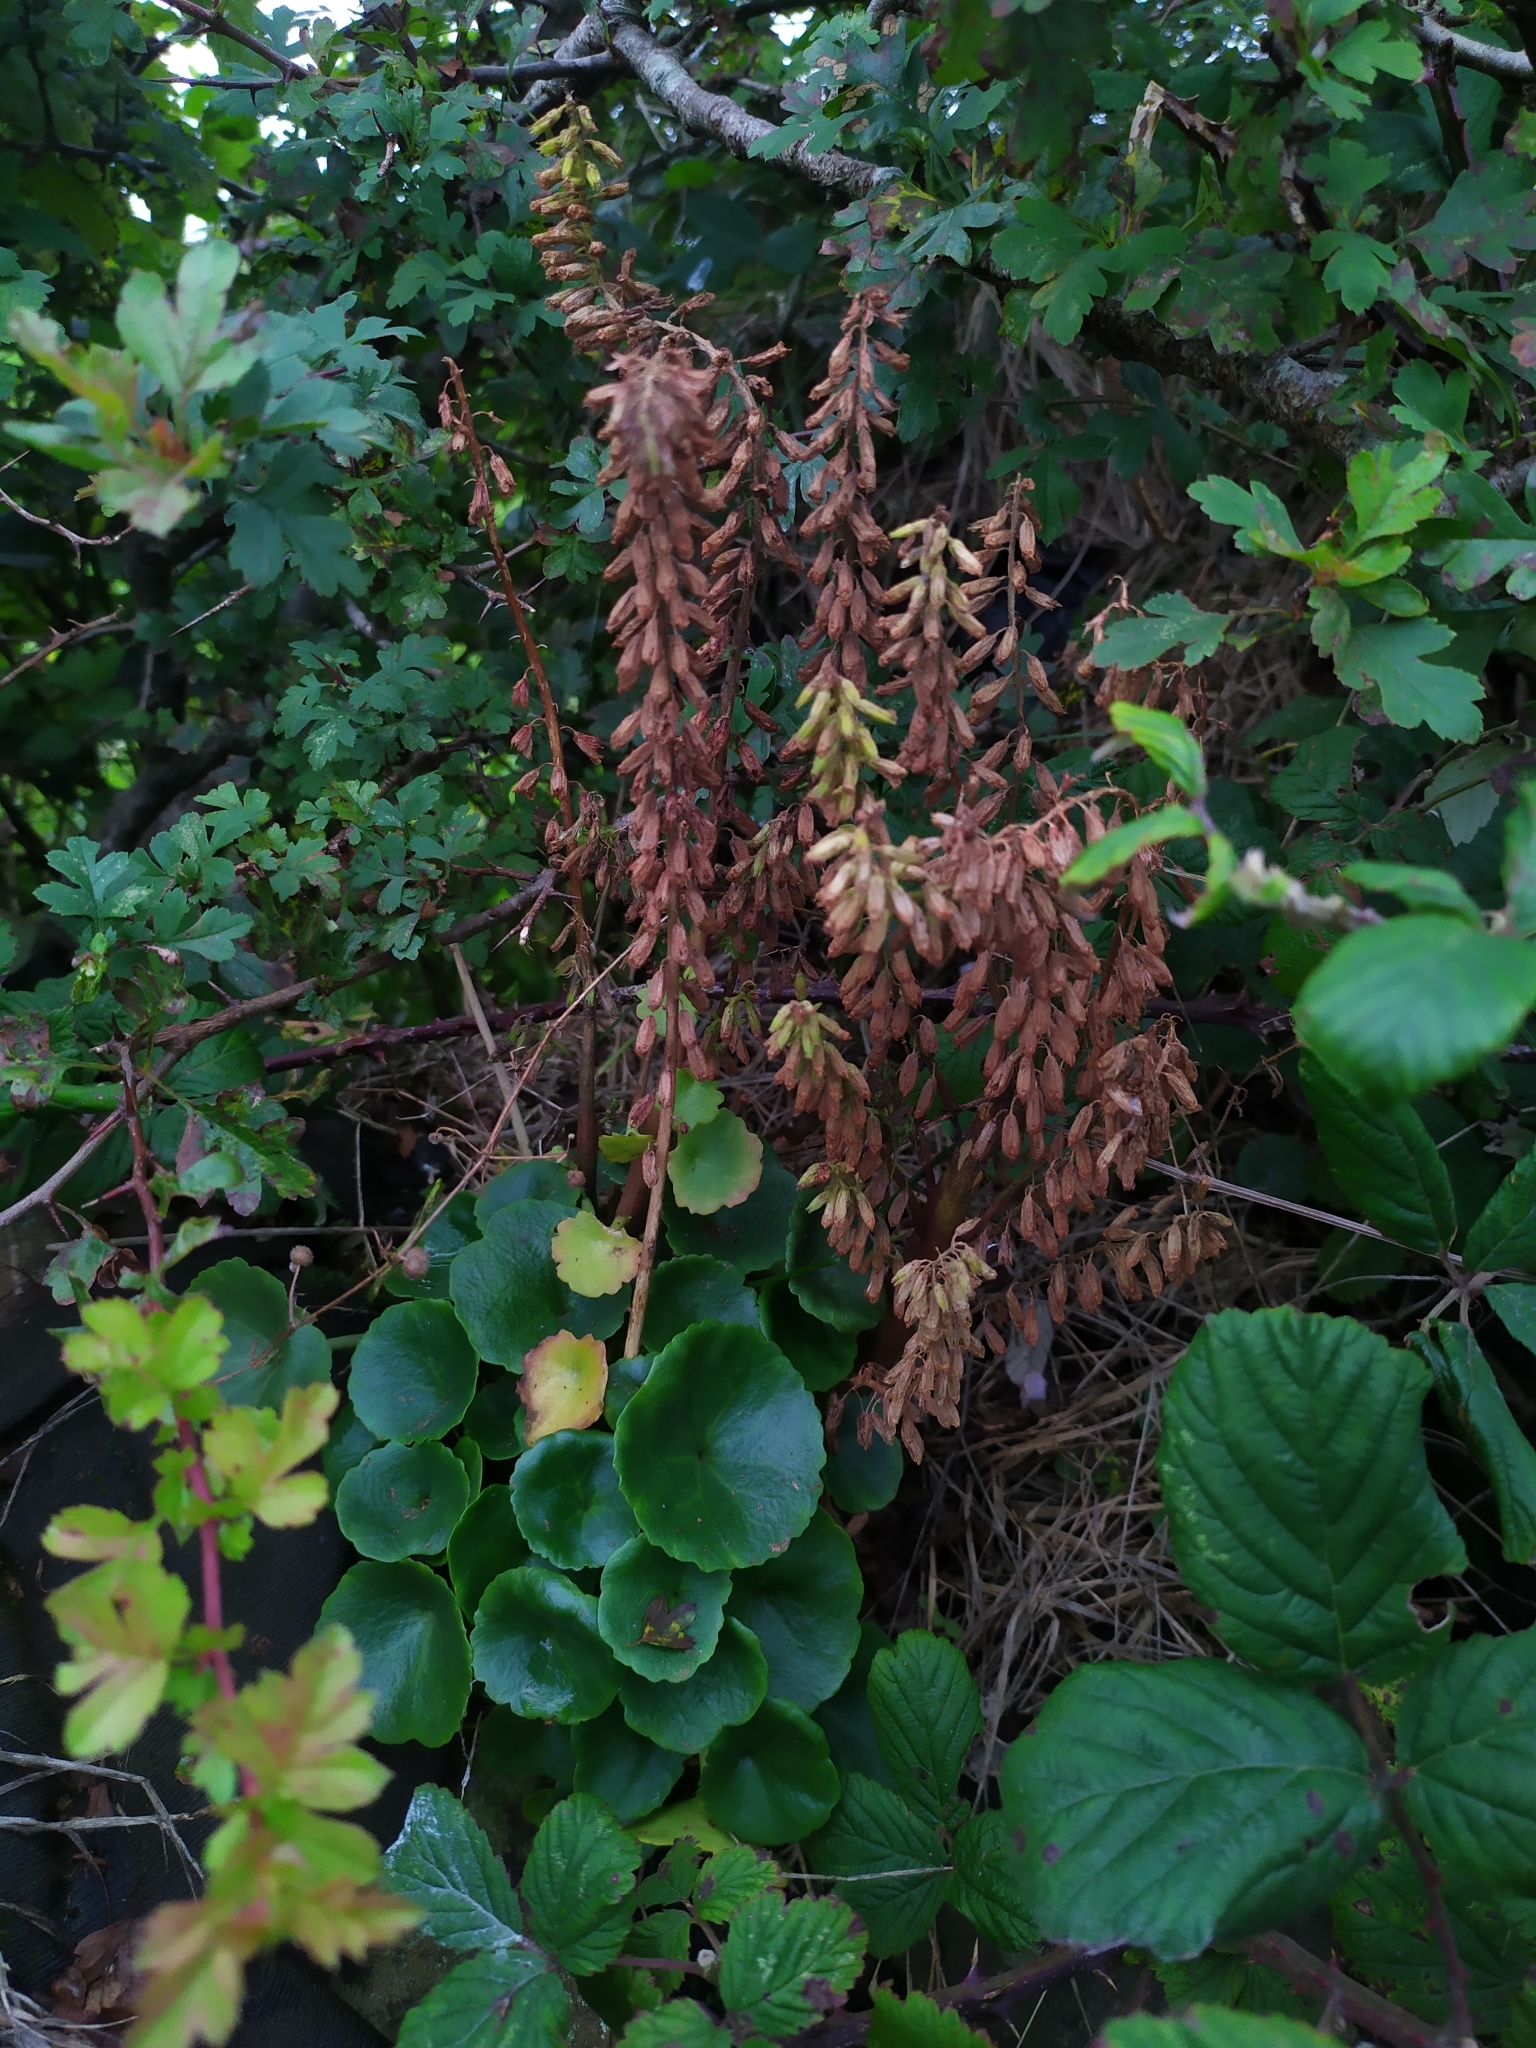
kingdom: Plantae
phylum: Tracheophyta
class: Magnoliopsida
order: Saxifragales
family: Crassulaceae
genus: Umbilicus
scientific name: Umbilicus rupestris
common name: Navelwort
